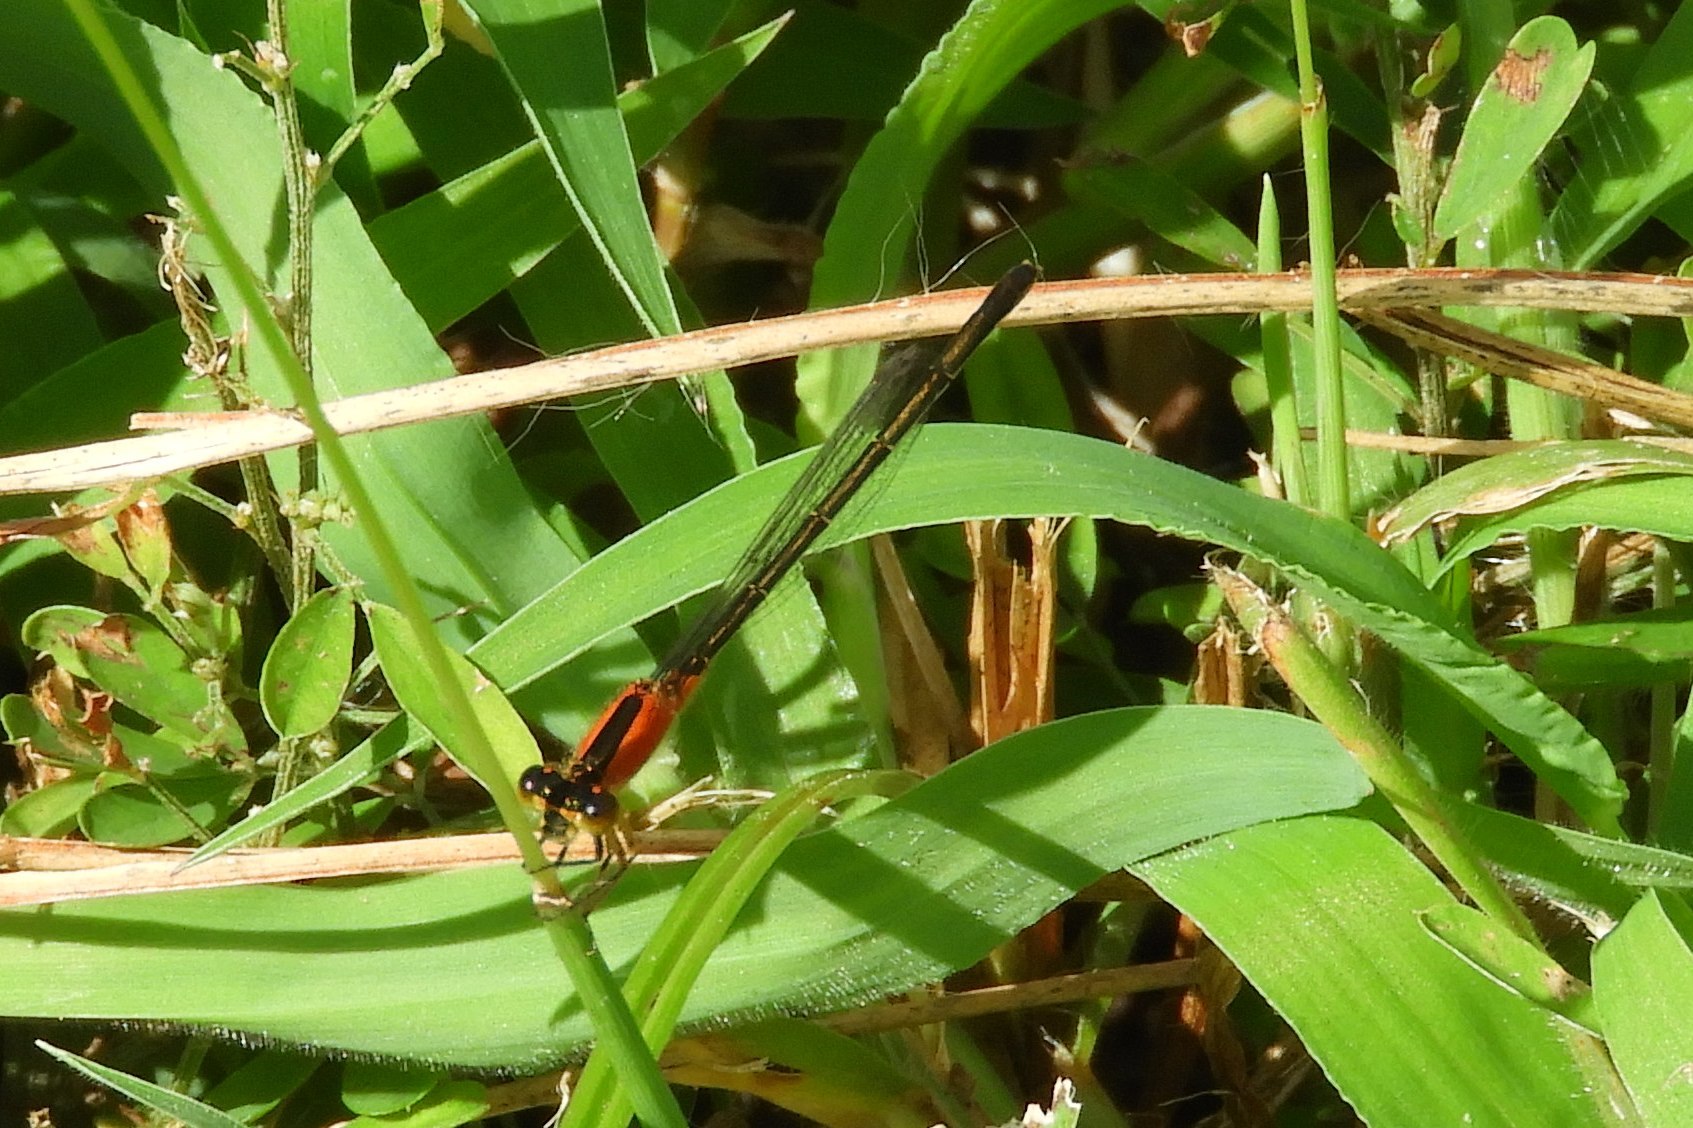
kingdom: Animalia
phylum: Arthropoda
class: Insecta
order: Odonata
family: Coenagrionidae
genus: Ischnura
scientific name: Ischnura ramburii
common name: Rambur's forktail
